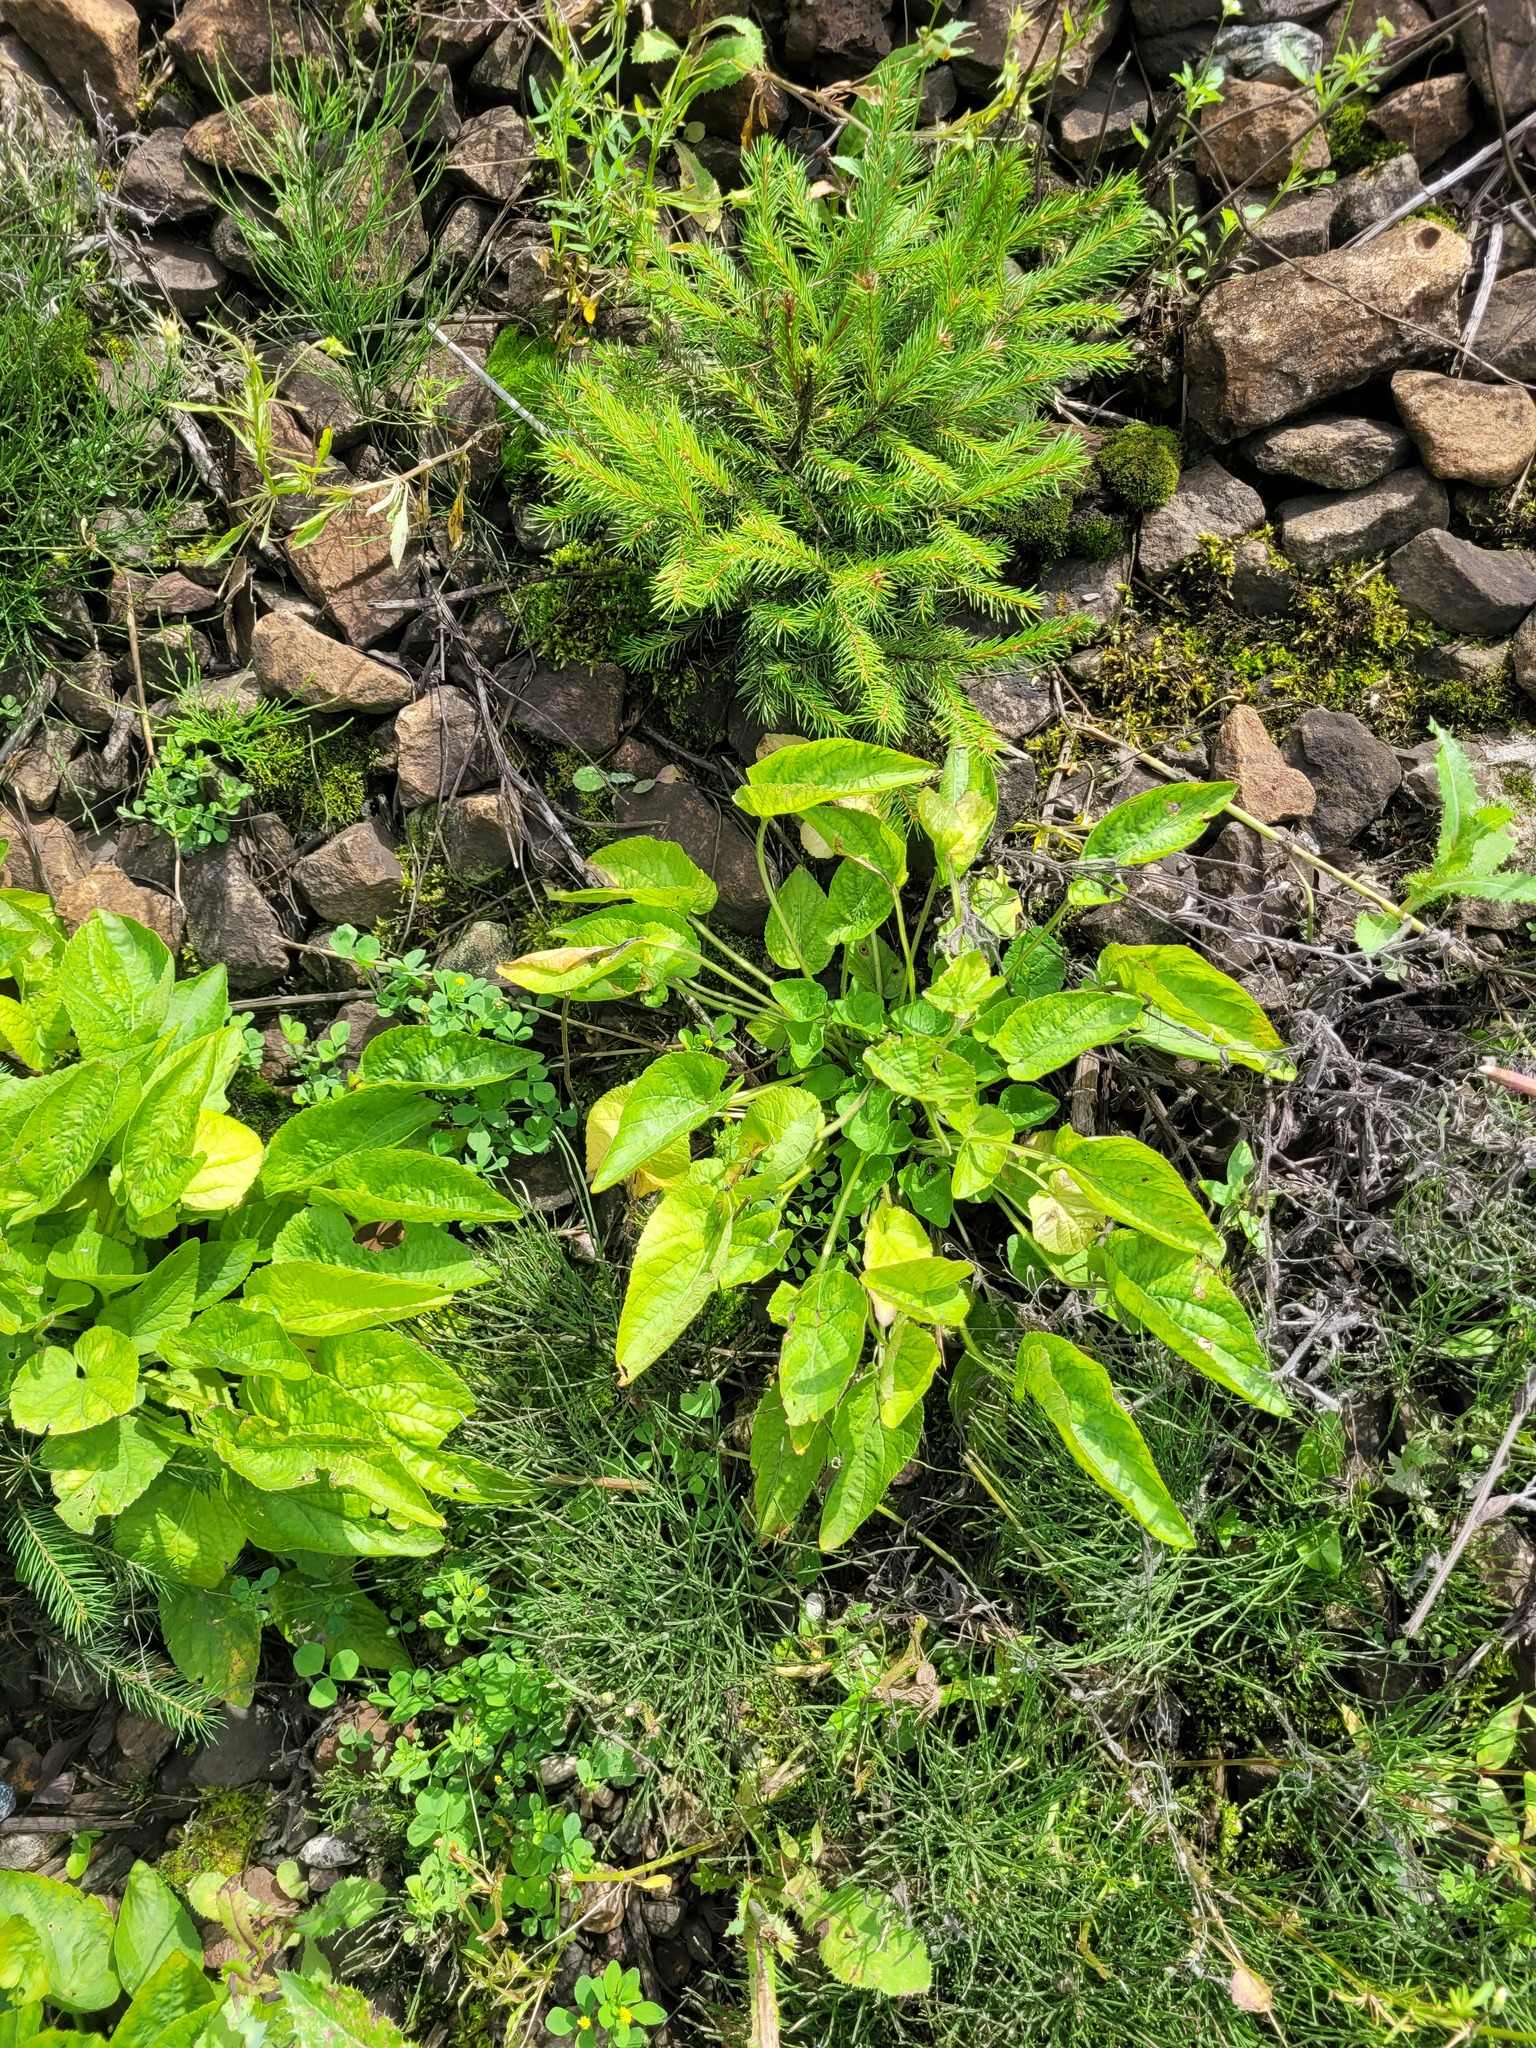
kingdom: Plantae
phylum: Tracheophyta
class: Magnoliopsida
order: Malpighiales
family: Violaceae
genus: Viola
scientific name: Viola hirta
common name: Hairy violet
